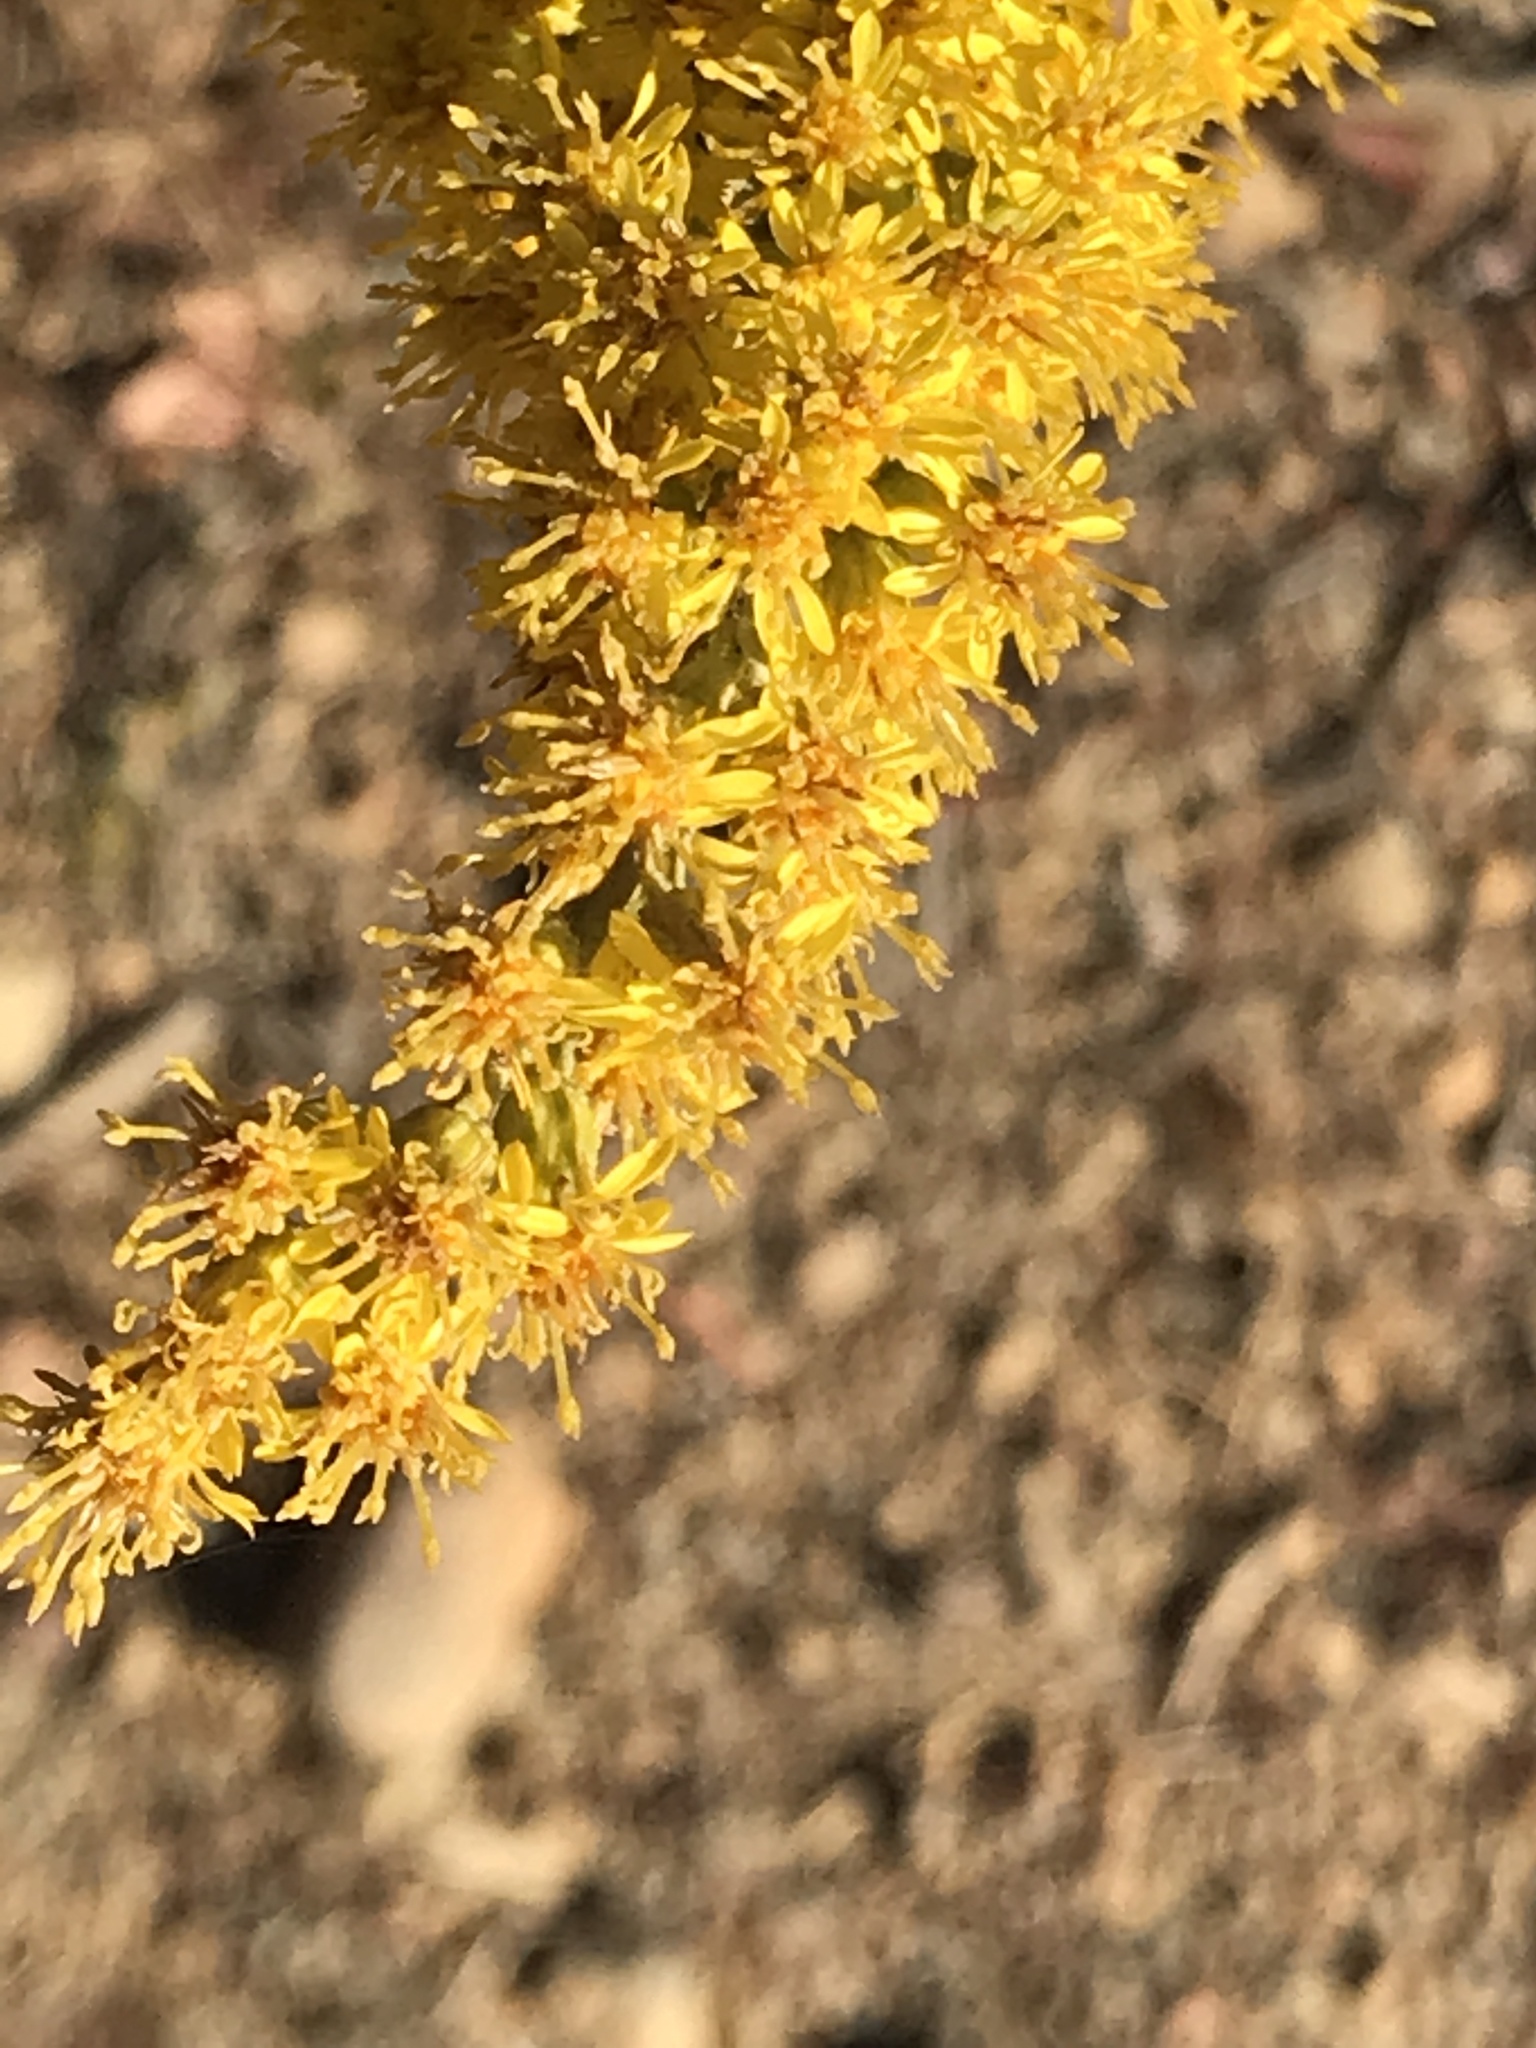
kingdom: Plantae
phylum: Tracheophyta
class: Magnoliopsida
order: Asterales
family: Asteraceae
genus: Solidago
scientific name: Solidago californica
